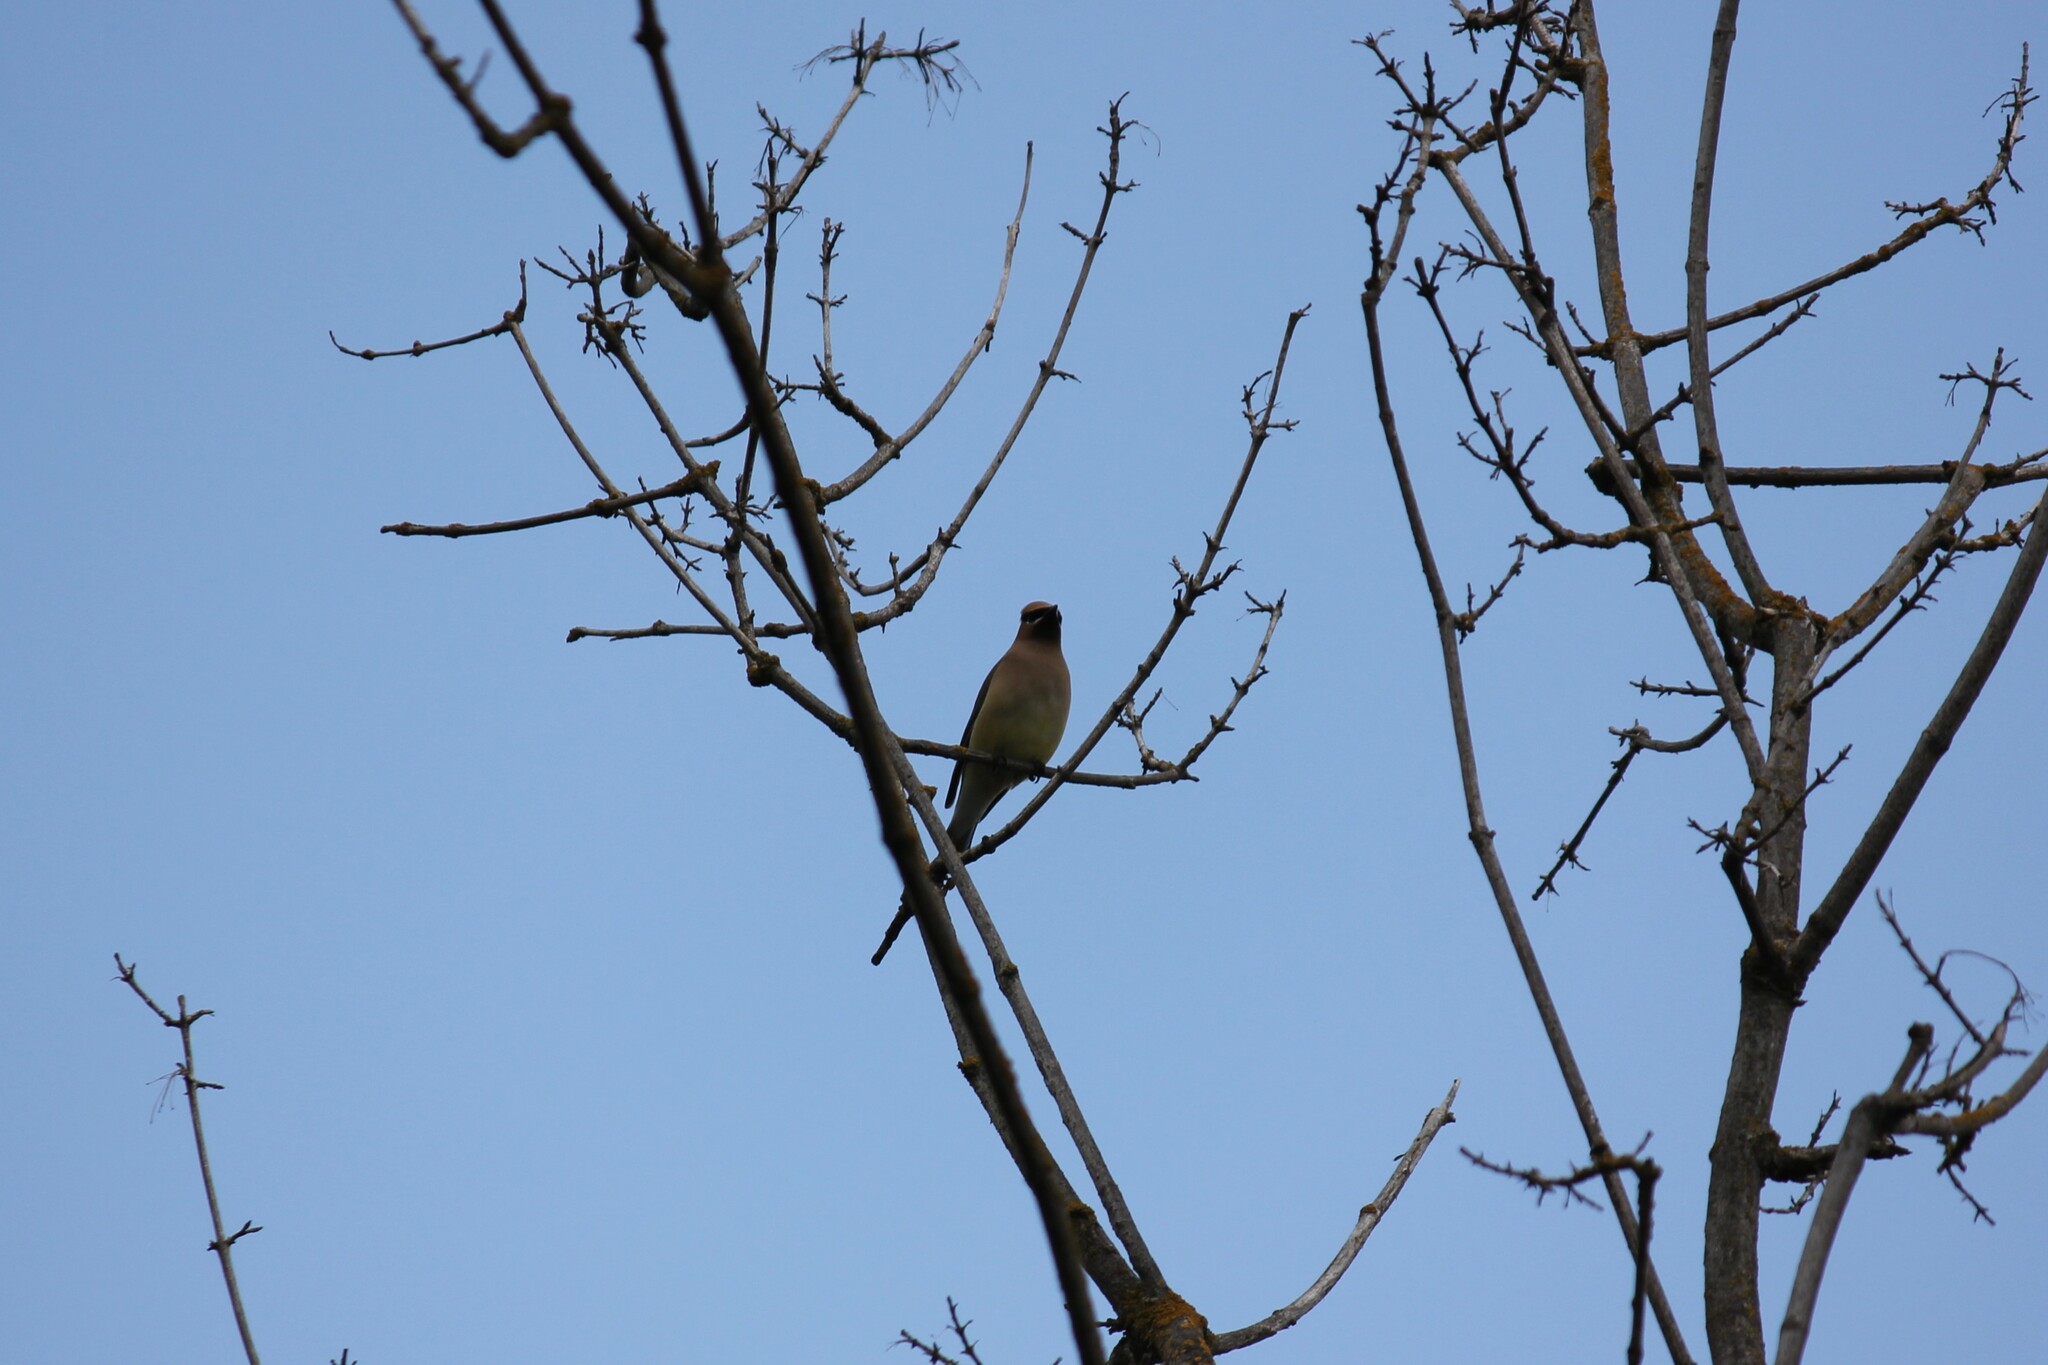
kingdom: Animalia
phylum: Chordata
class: Aves
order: Passeriformes
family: Bombycillidae
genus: Bombycilla
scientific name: Bombycilla cedrorum
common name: Cedar waxwing
